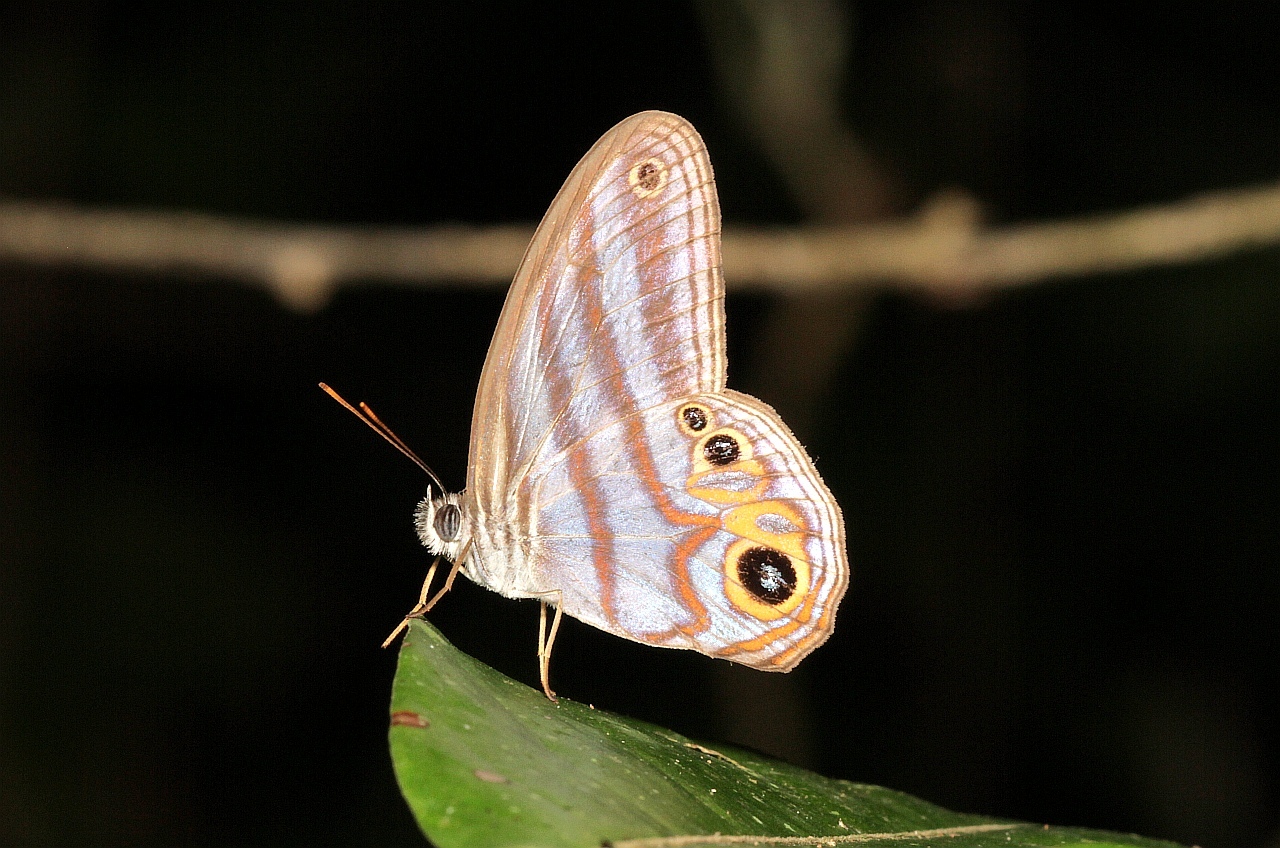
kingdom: Animalia
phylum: Arthropoda
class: Insecta
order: Lepidoptera
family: Nymphalidae
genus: Pseudeuptychia
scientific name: Pseudeuptychia
